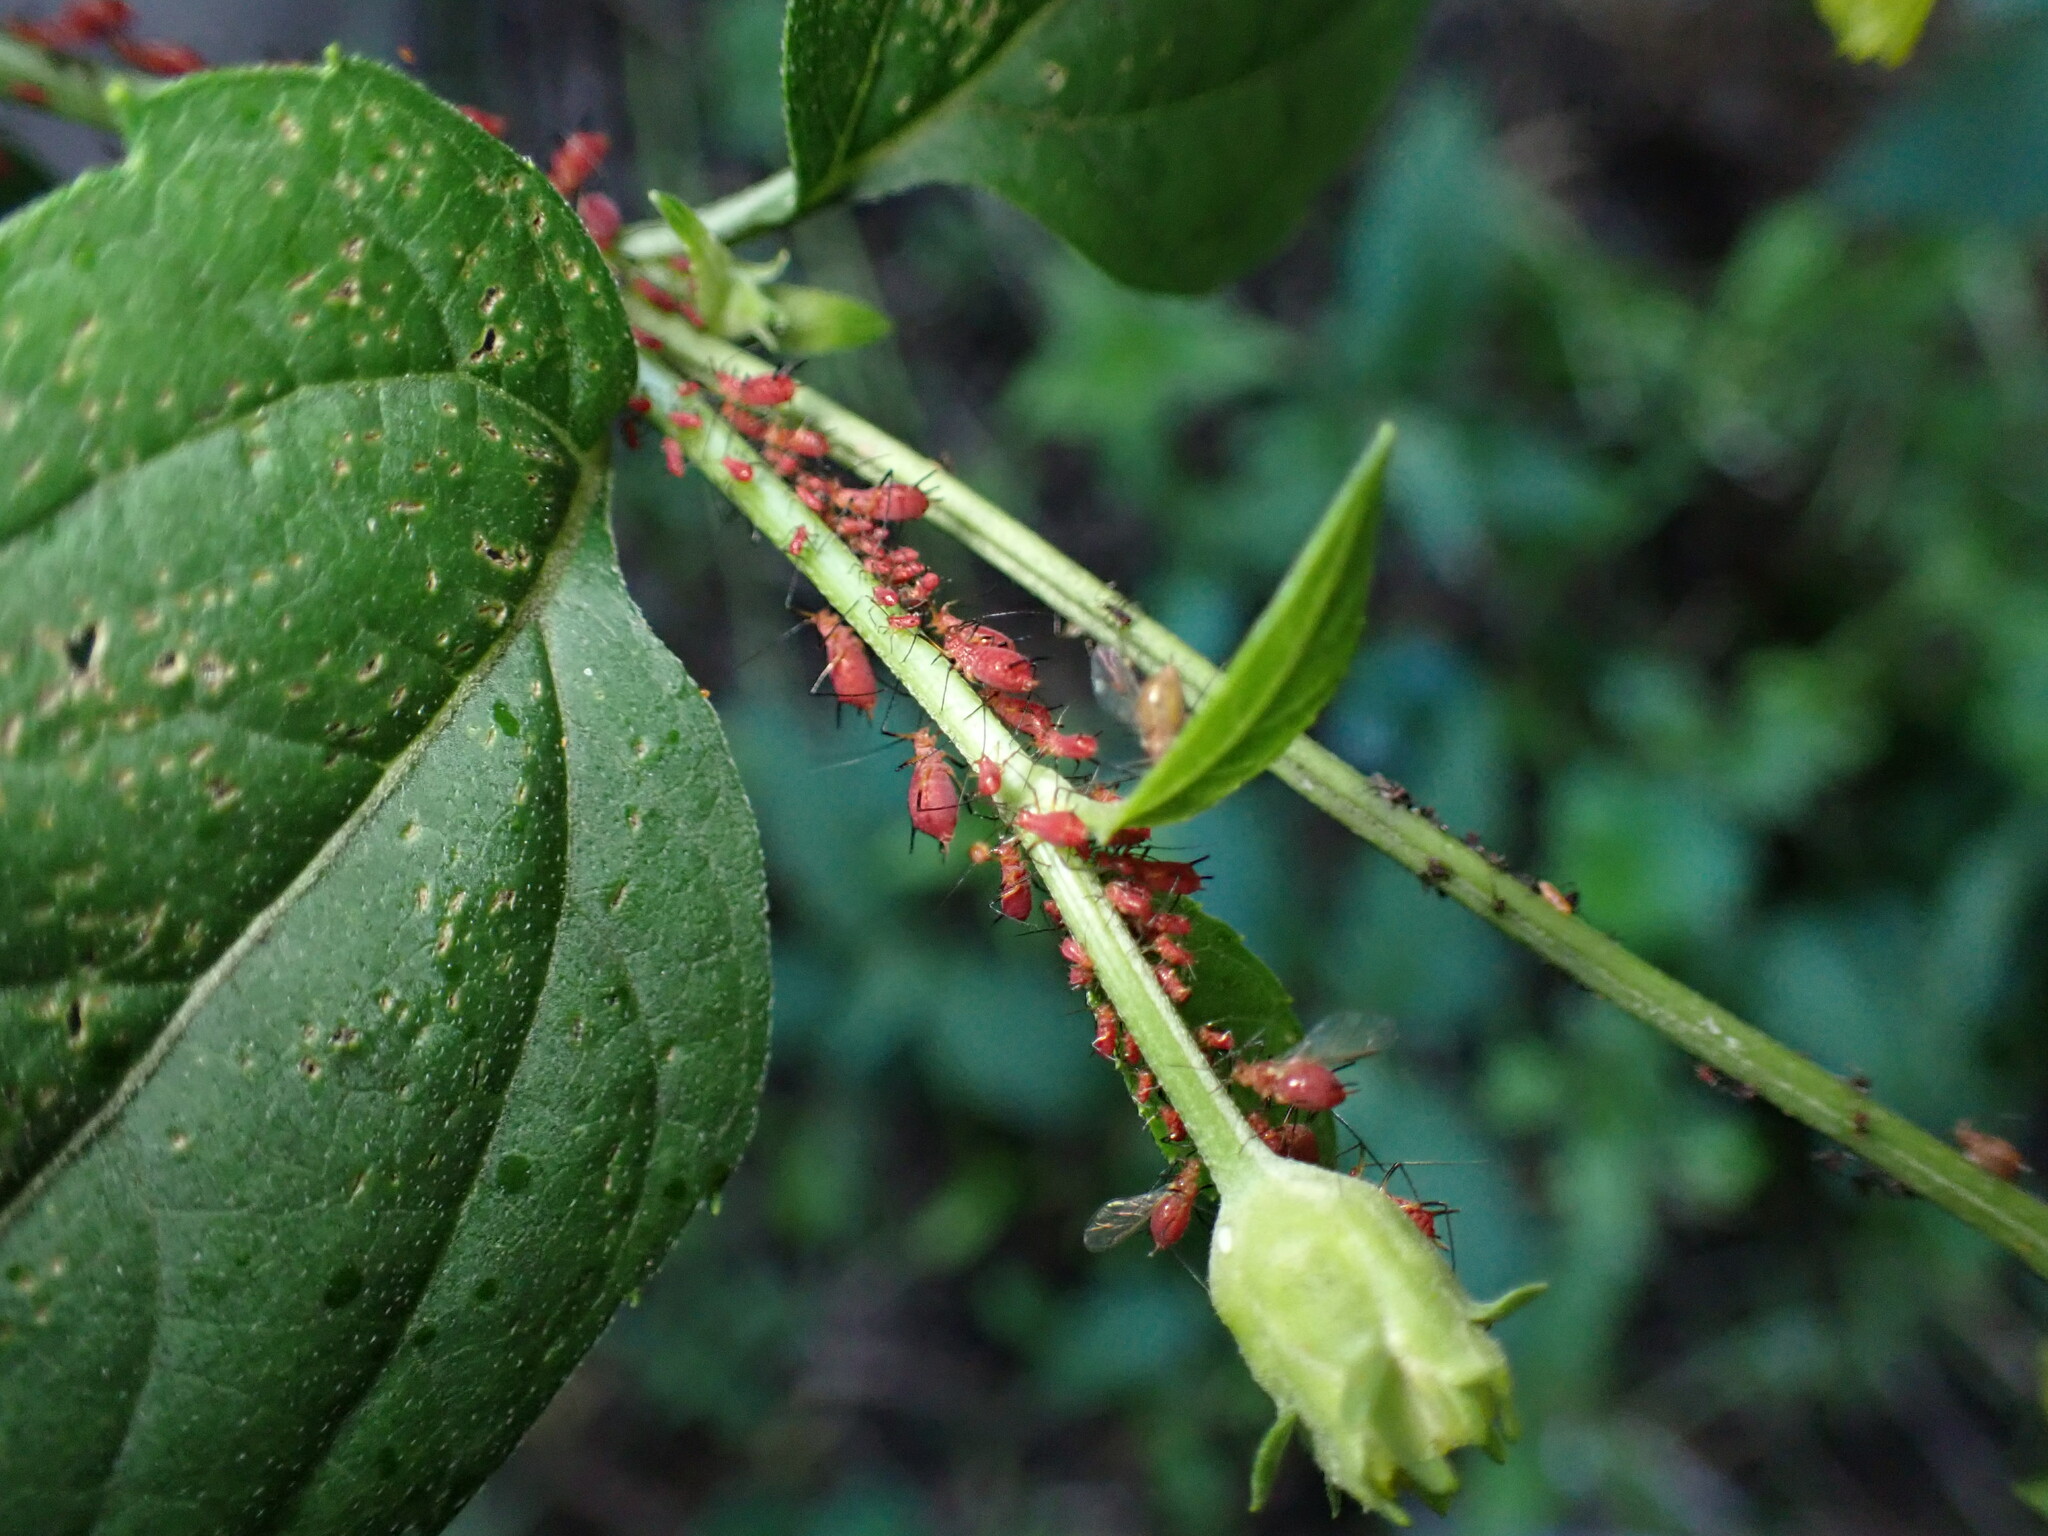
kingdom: Animalia
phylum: Arthropoda
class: Insecta
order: Hemiptera
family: Aphididae
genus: Uroleucon
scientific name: Uroleucon obscuricaudatum
